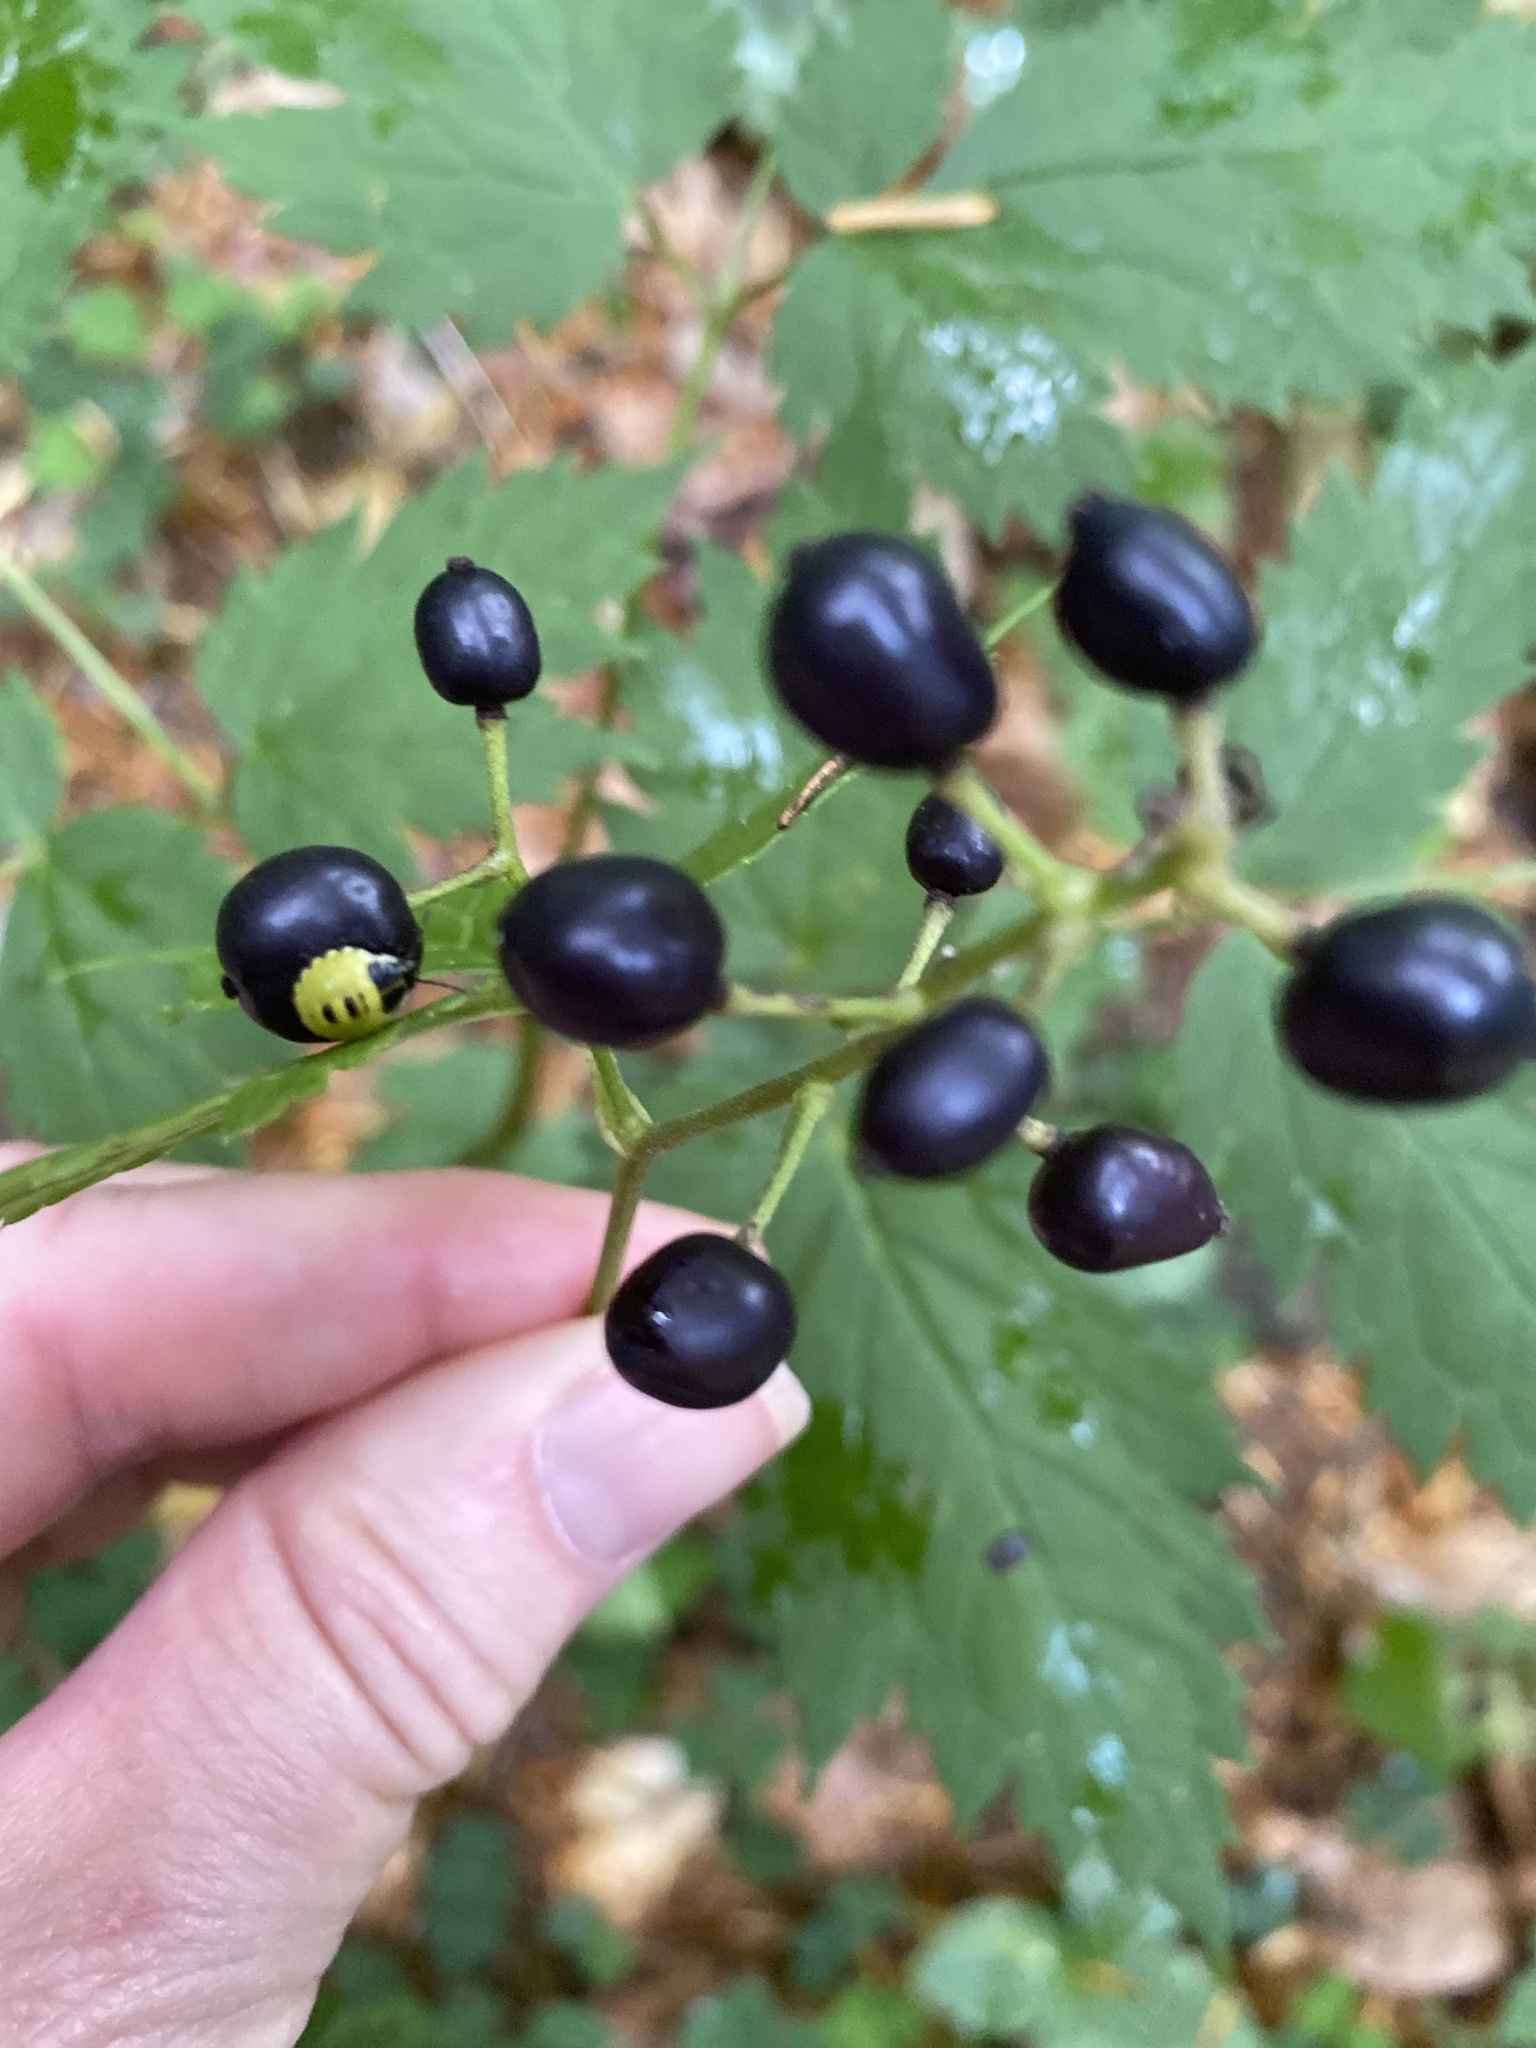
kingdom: Plantae
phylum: Tracheophyta
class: Magnoliopsida
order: Ranunculales
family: Ranunculaceae
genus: Actaea
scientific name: Actaea spicata
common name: Baneberry
